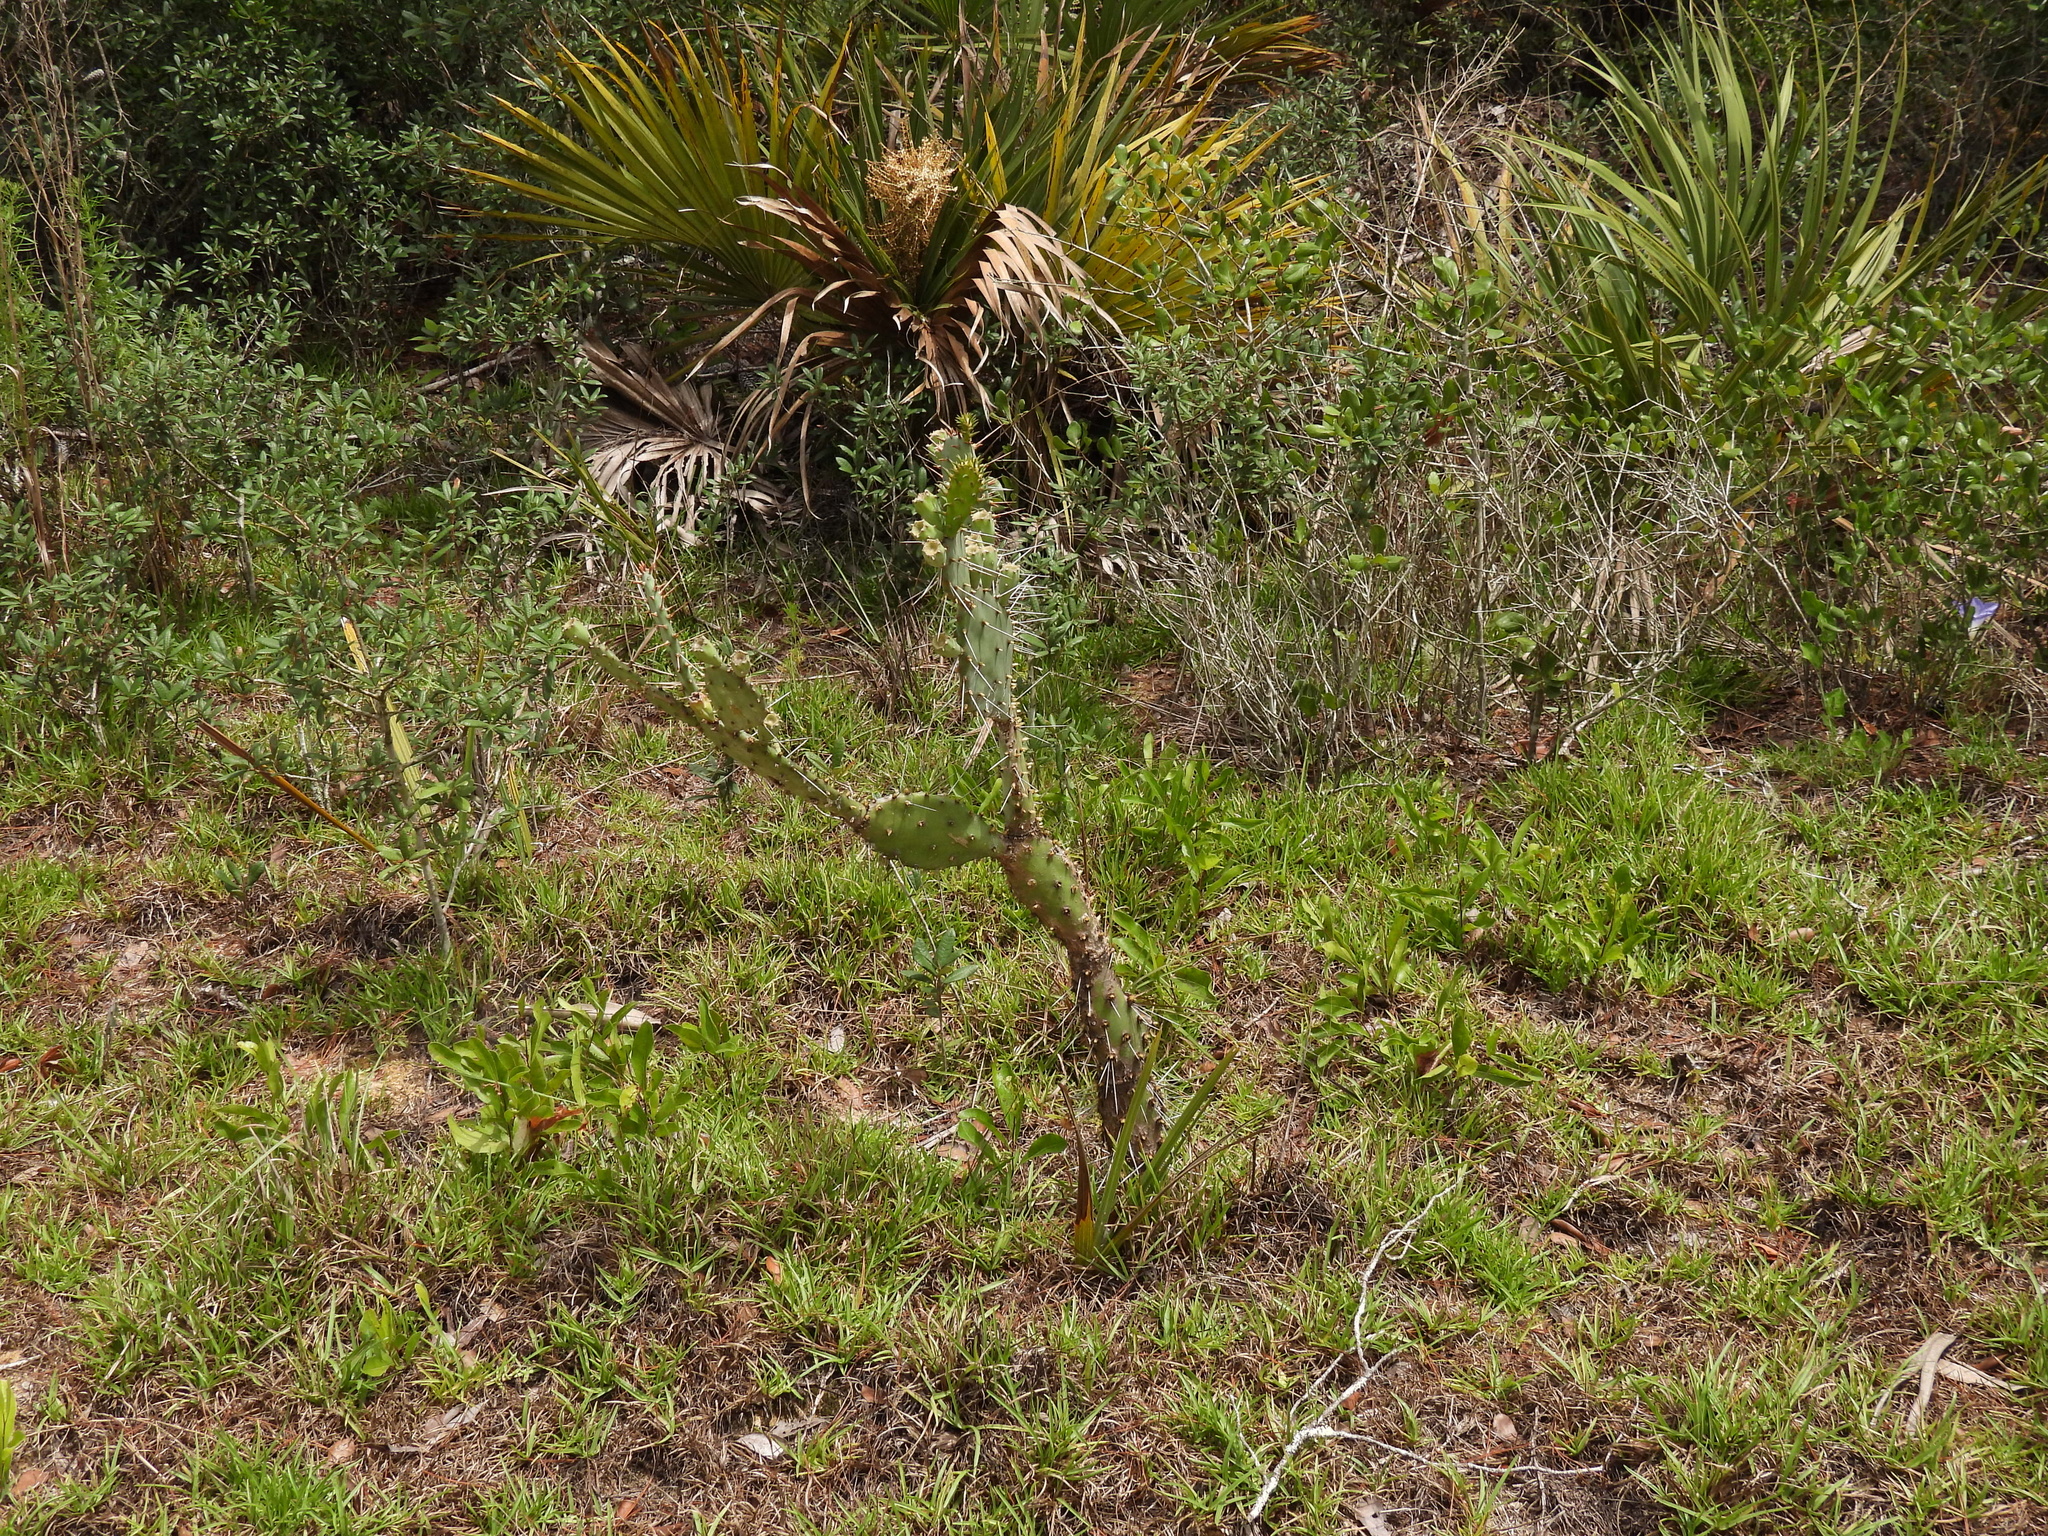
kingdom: Plantae
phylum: Tracheophyta
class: Magnoliopsida
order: Caryophyllales
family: Cactaceae
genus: Opuntia
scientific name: Opuntia austrina
